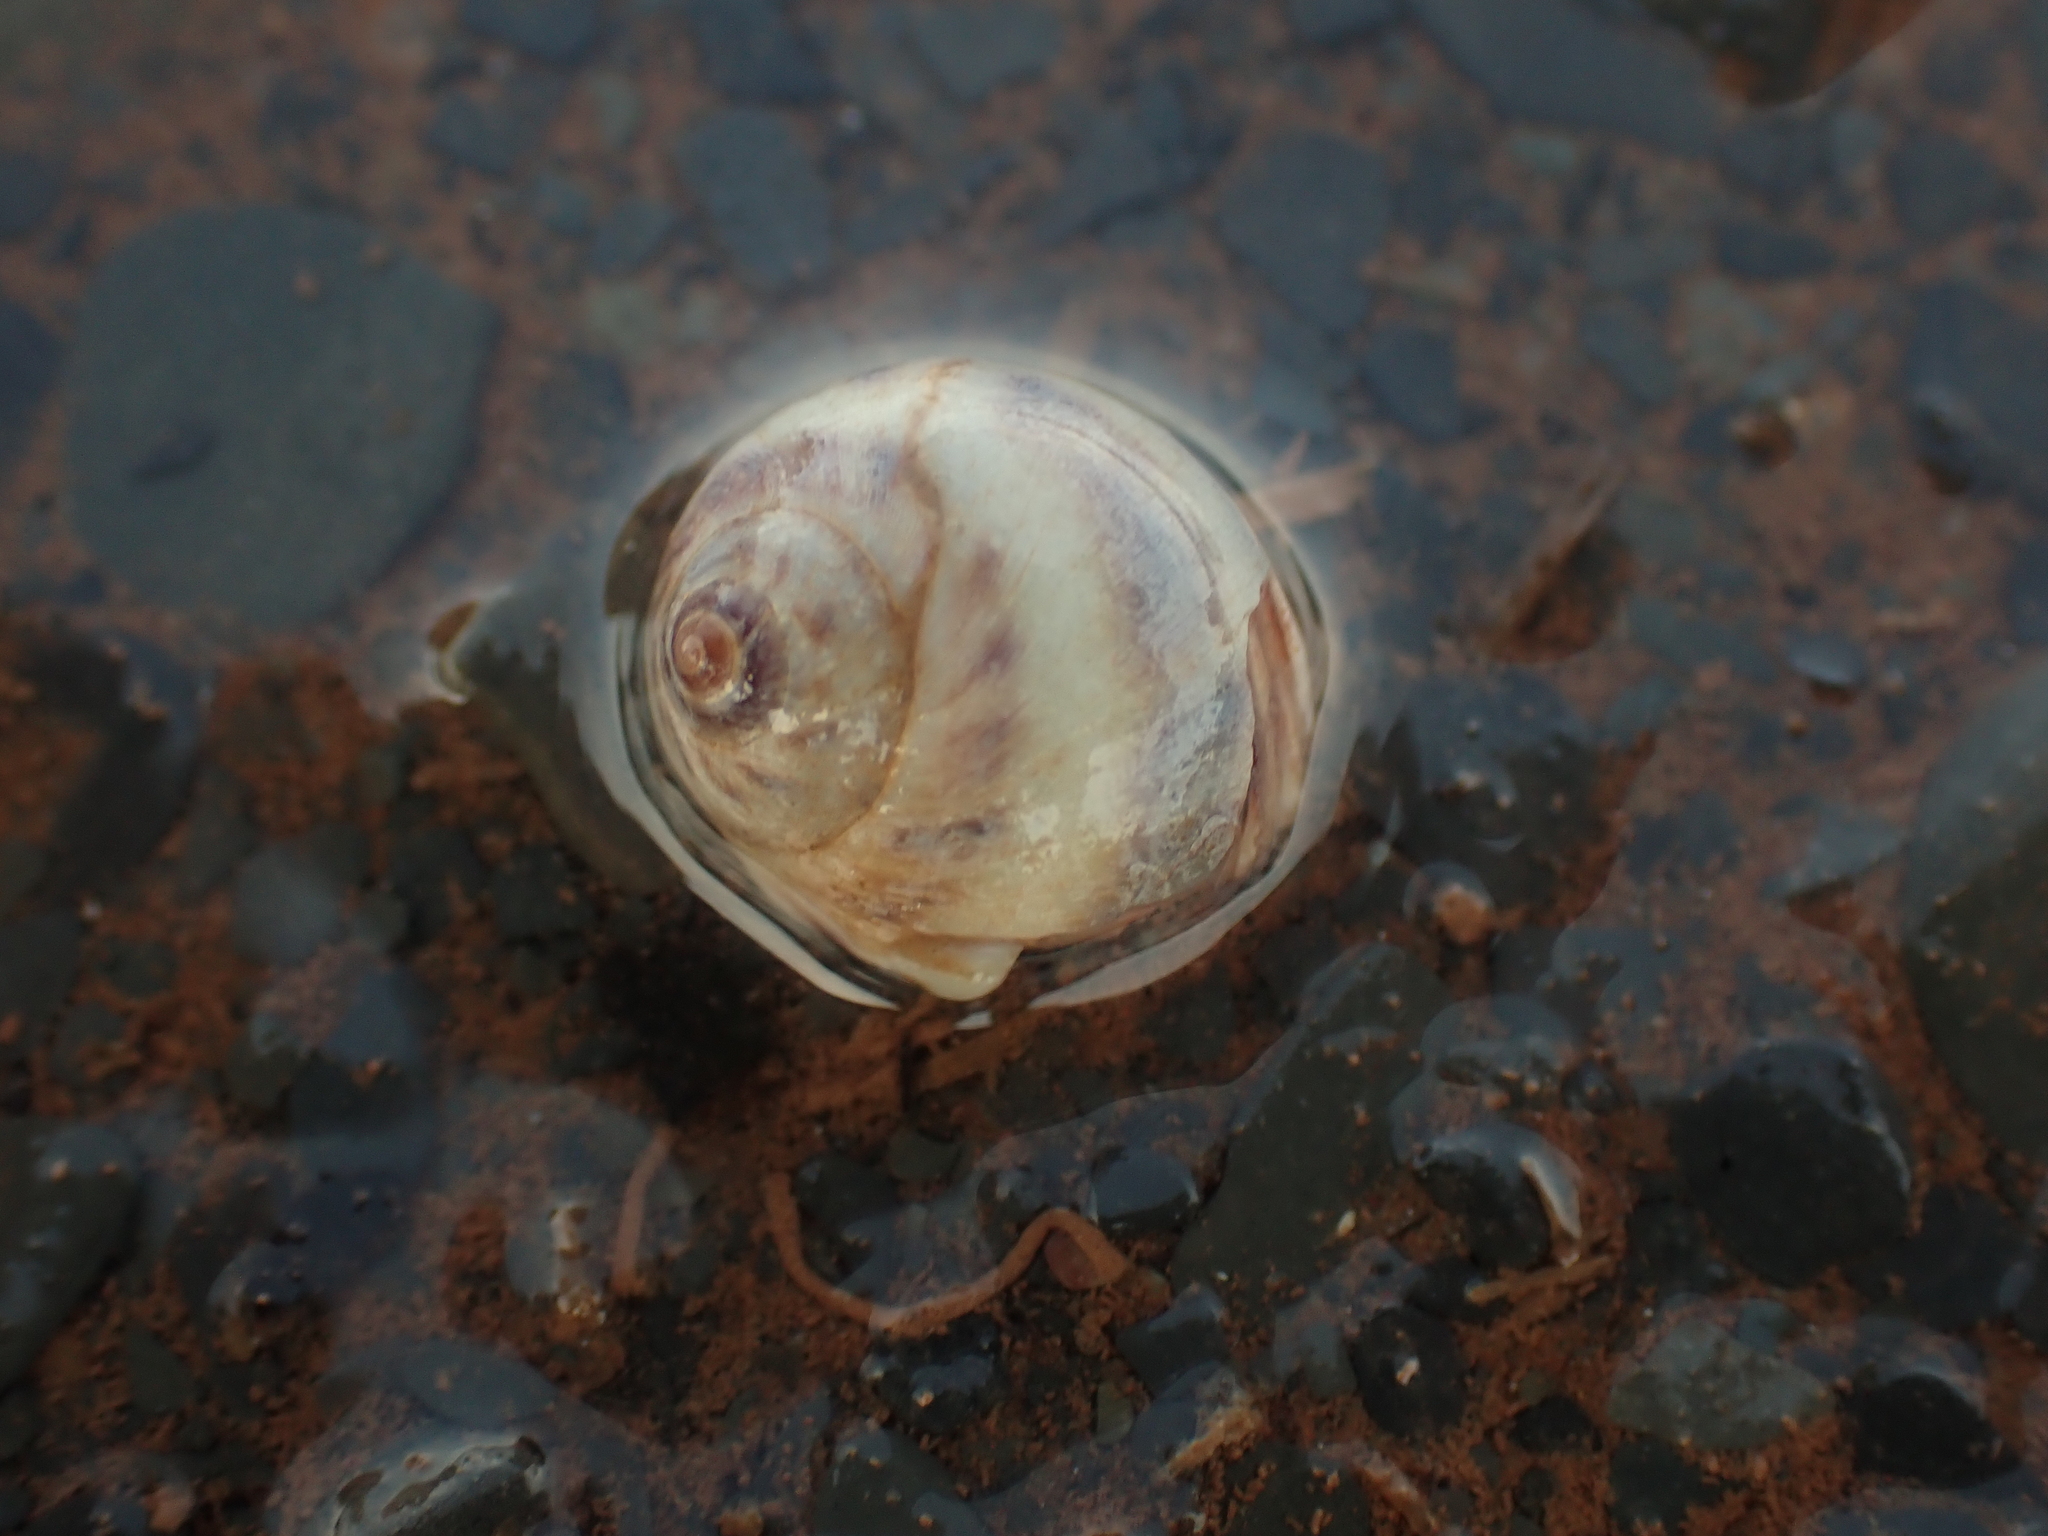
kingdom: Animalia
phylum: Mollusca
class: Gastropoda
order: Littorinimorpha
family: Naticidae
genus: Euspira
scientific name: Euspira triseriata
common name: Spotted moonsnail
